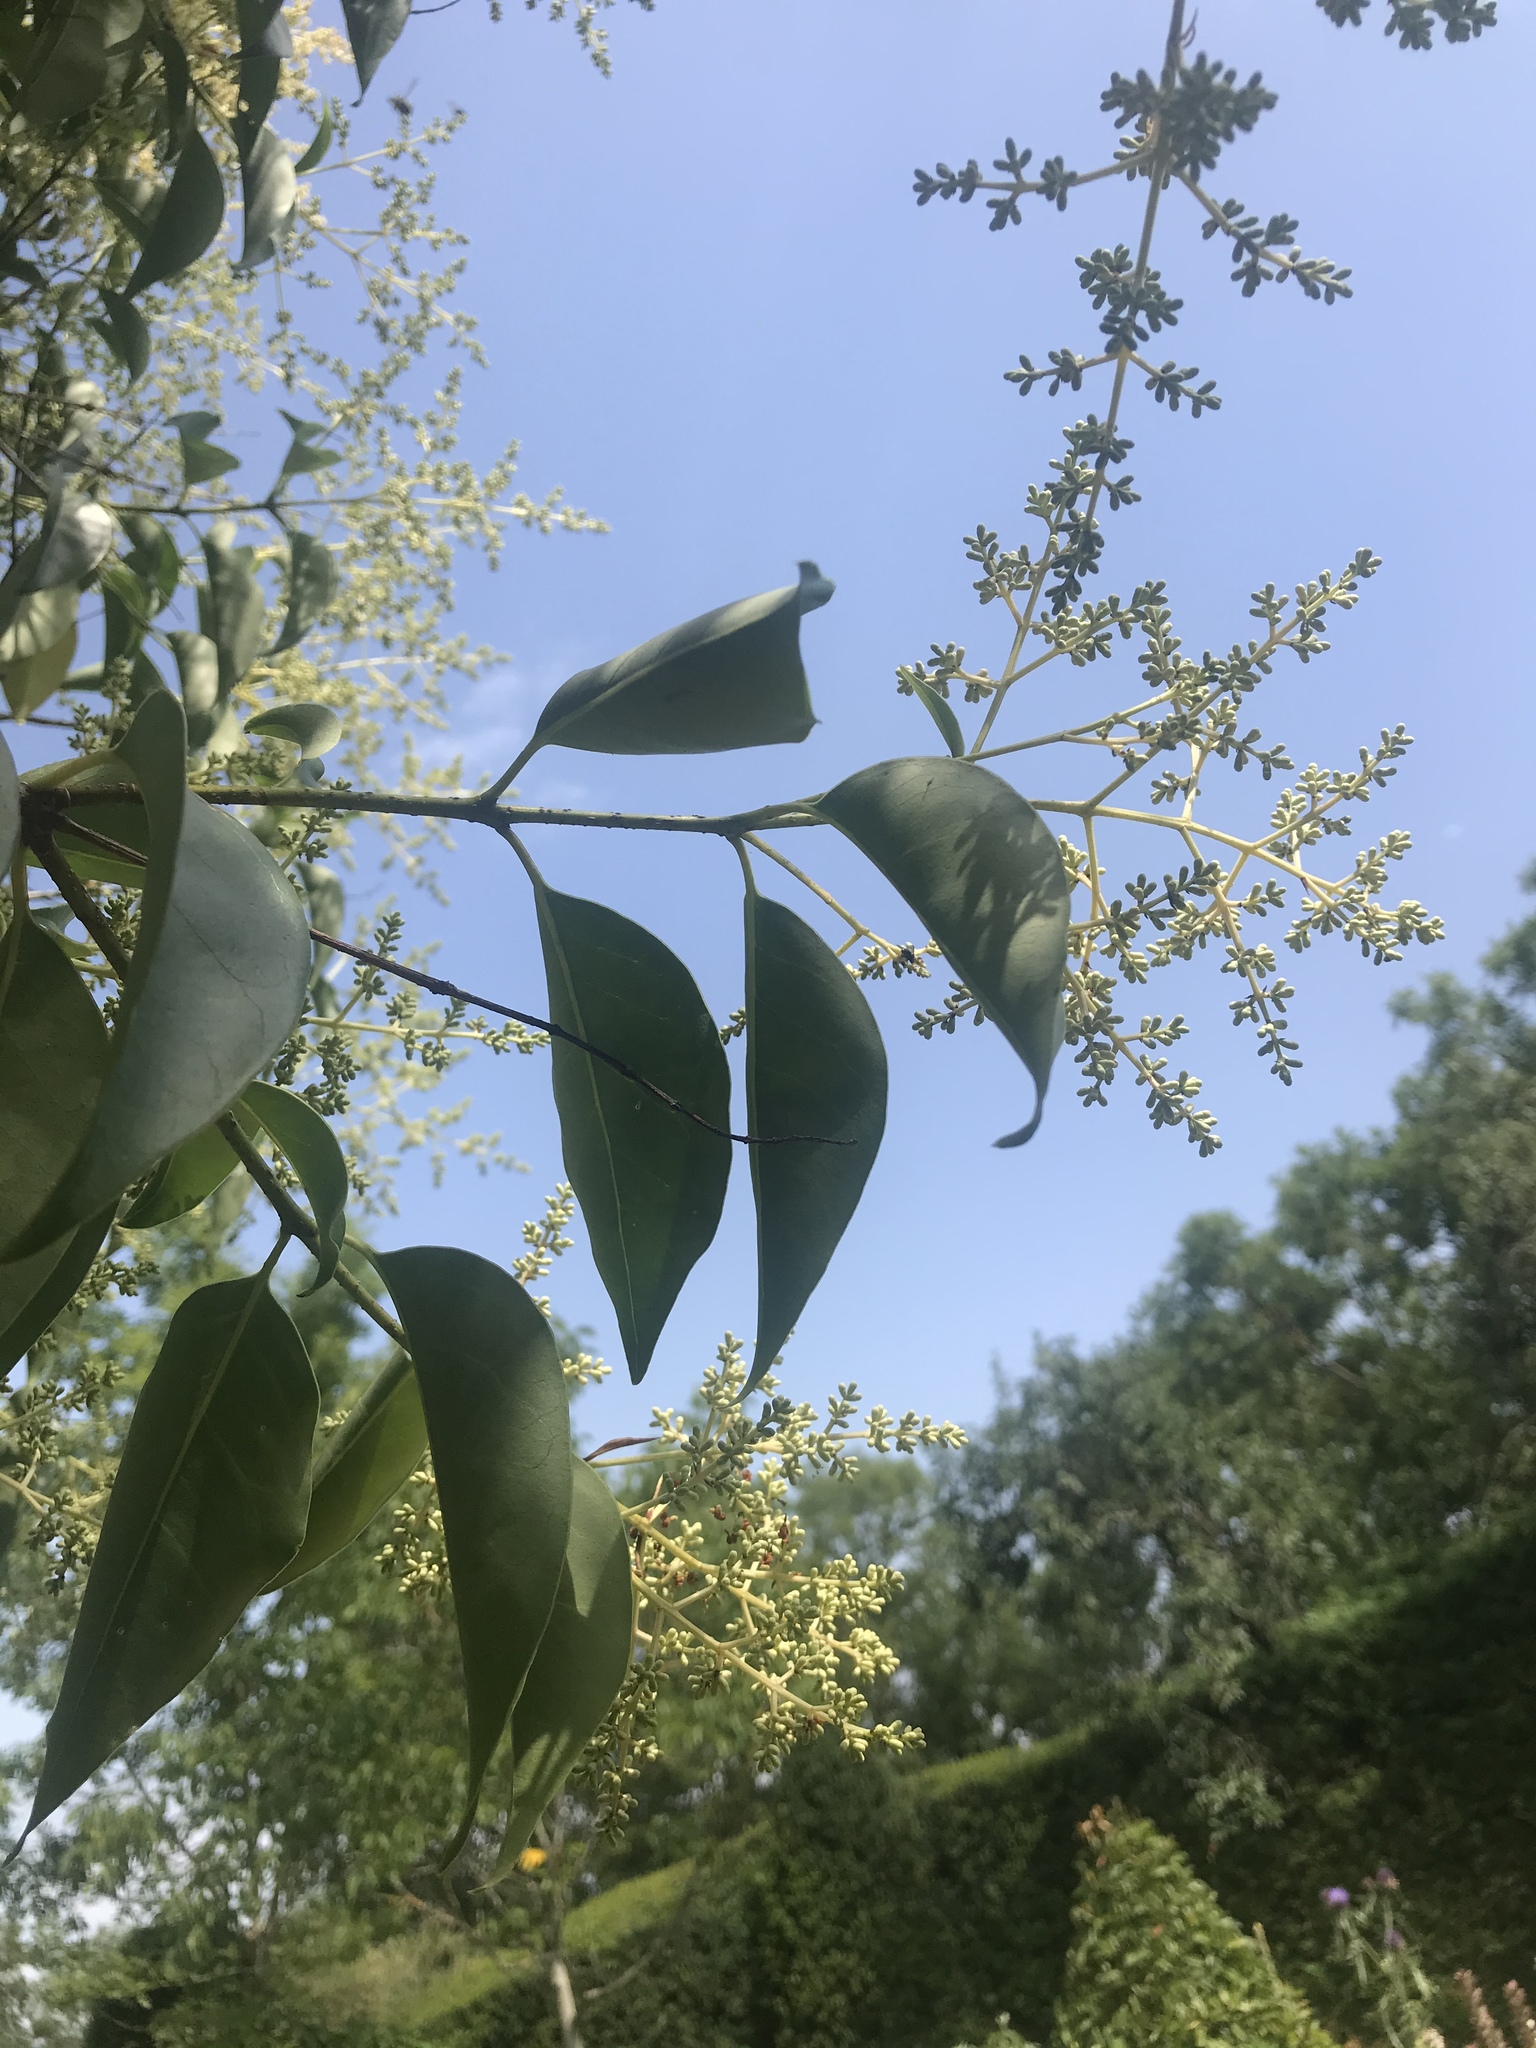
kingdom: Plantae
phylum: Tracheophyta
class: Magnoliopsida
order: Lamiales
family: Oleaceae
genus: Ligustrum
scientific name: Ligustrum lucidum
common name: Glossy privet
